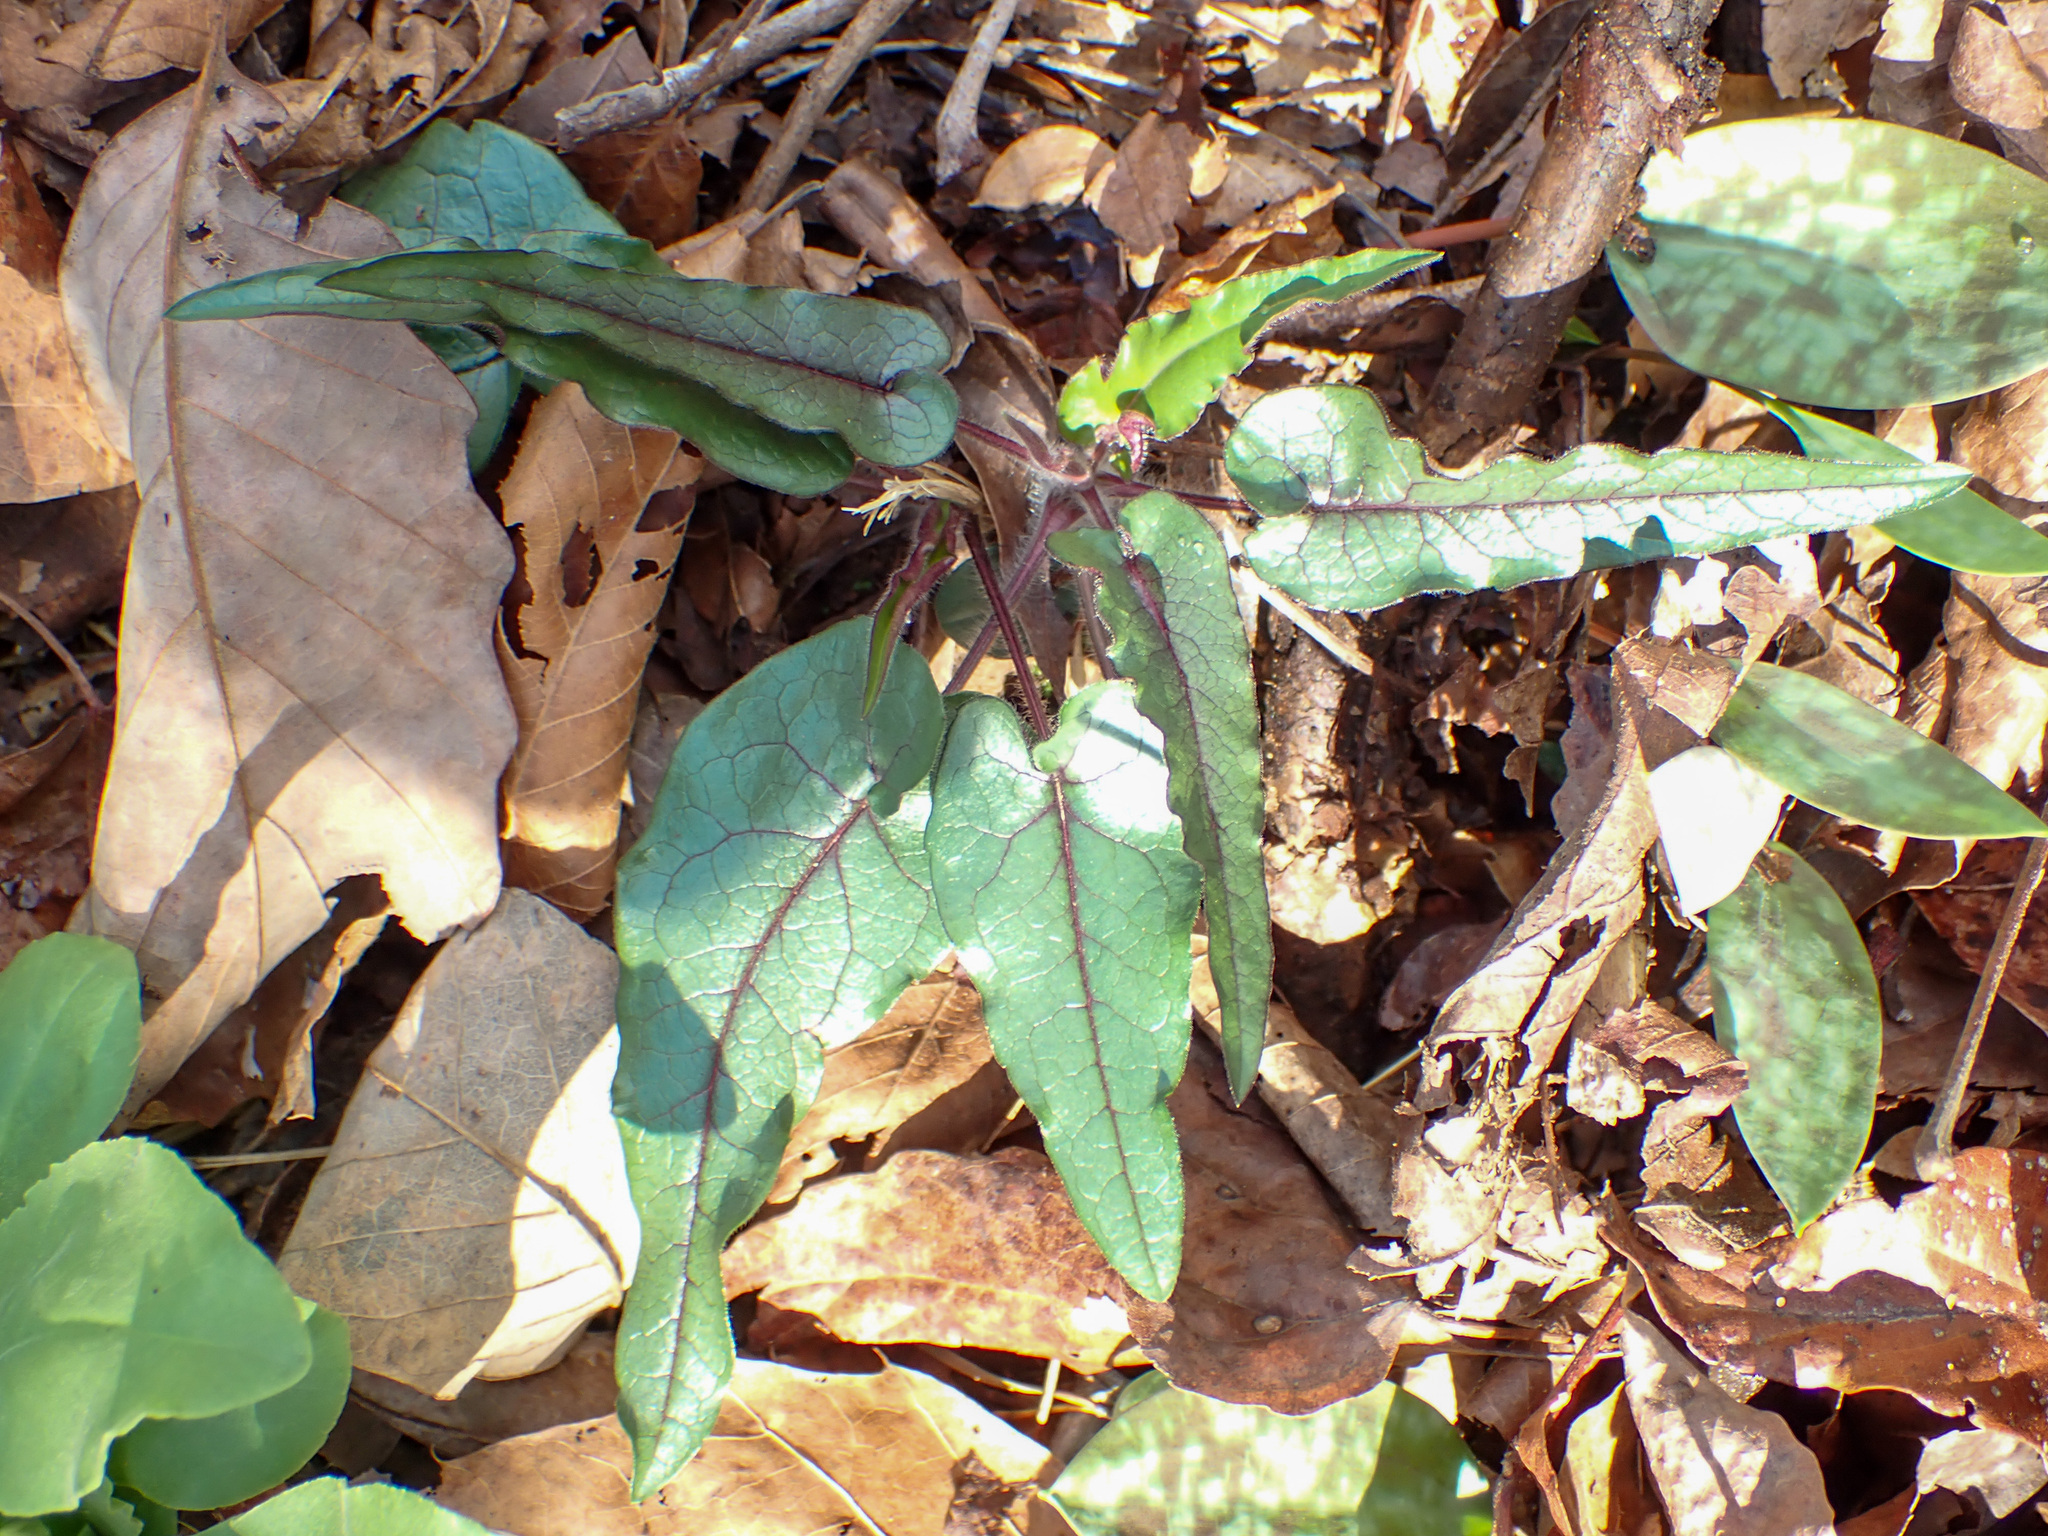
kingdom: Plantae
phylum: Tracheophyta
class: Magnoliopsida
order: Asterales
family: Asteraceae
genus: Symphyotrichum
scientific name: Symphyotrichum shortii
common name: Short's aster
